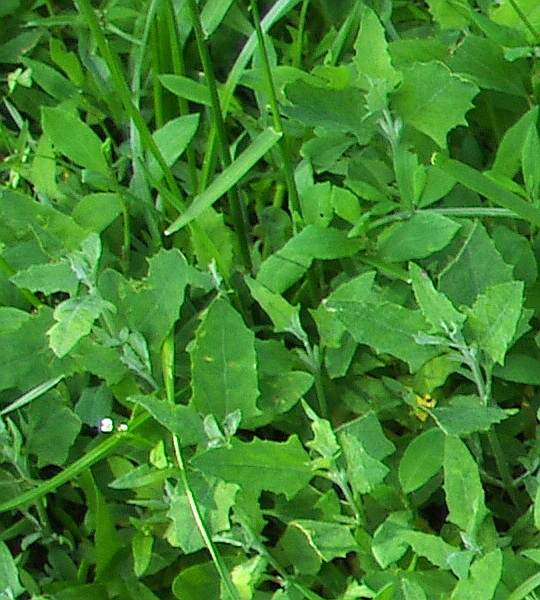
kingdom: Plantae
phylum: Tracheophyta
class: Magnoliopsida
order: Caryophyllales
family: Amaranthaceae
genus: Atriplex
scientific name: Atriplex patula
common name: Common orache
